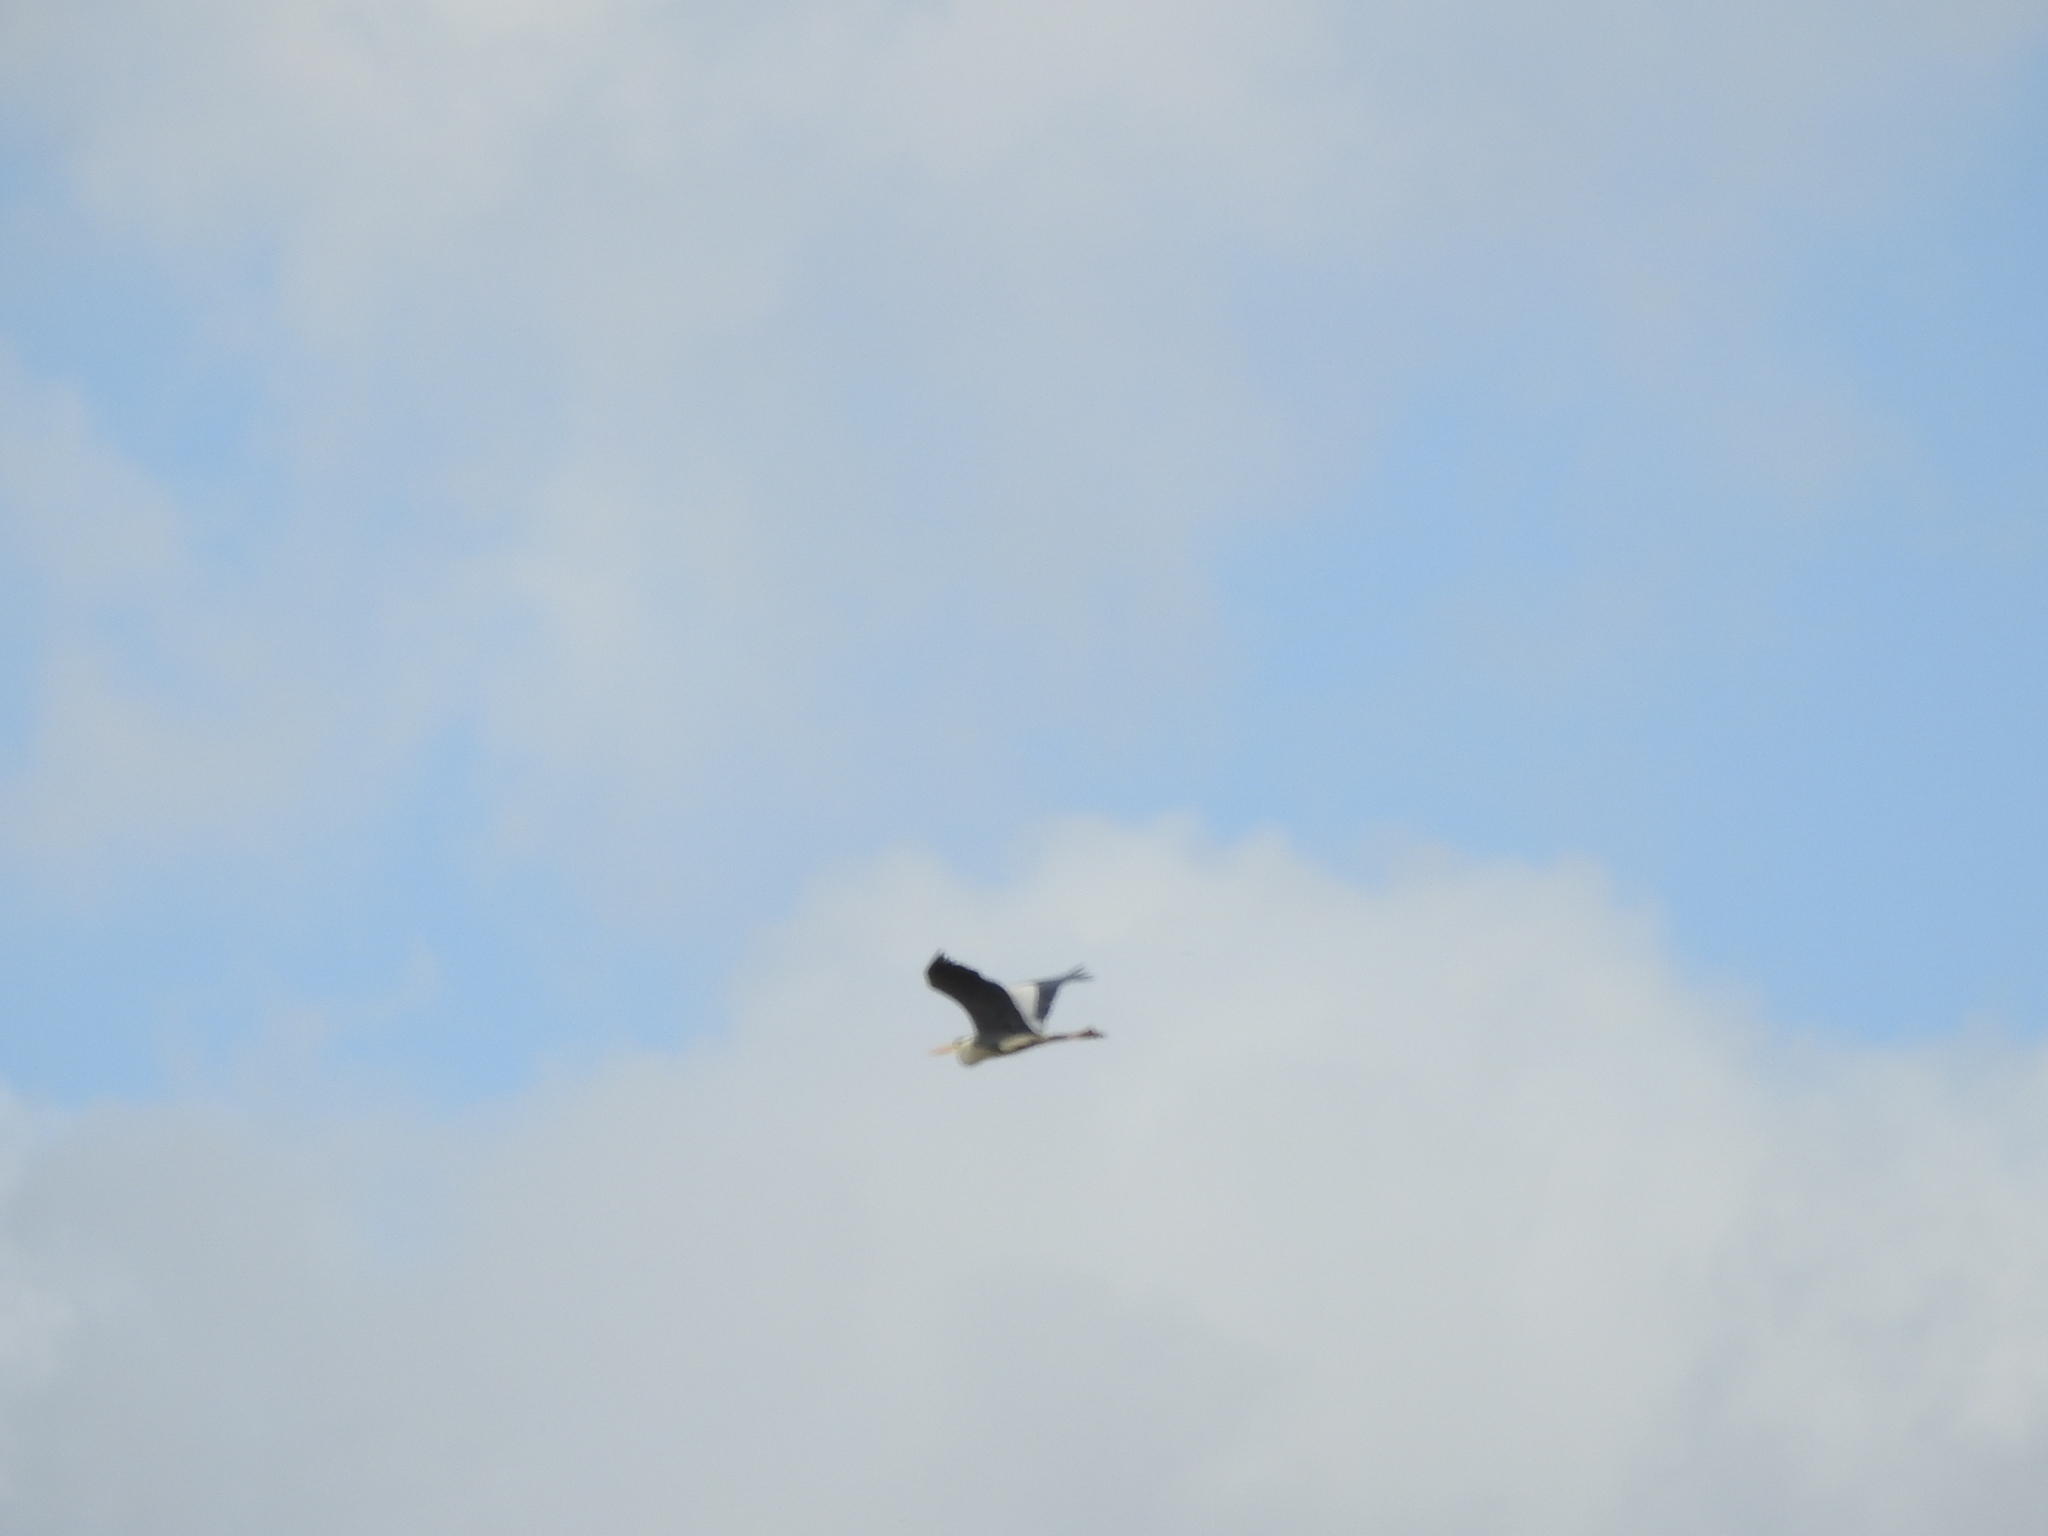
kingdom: Animalia
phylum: Chordata
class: Aves
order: Pelecaniformes
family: Ardeidae
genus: Ardea
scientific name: Ardea cinerea
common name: Grey heron
